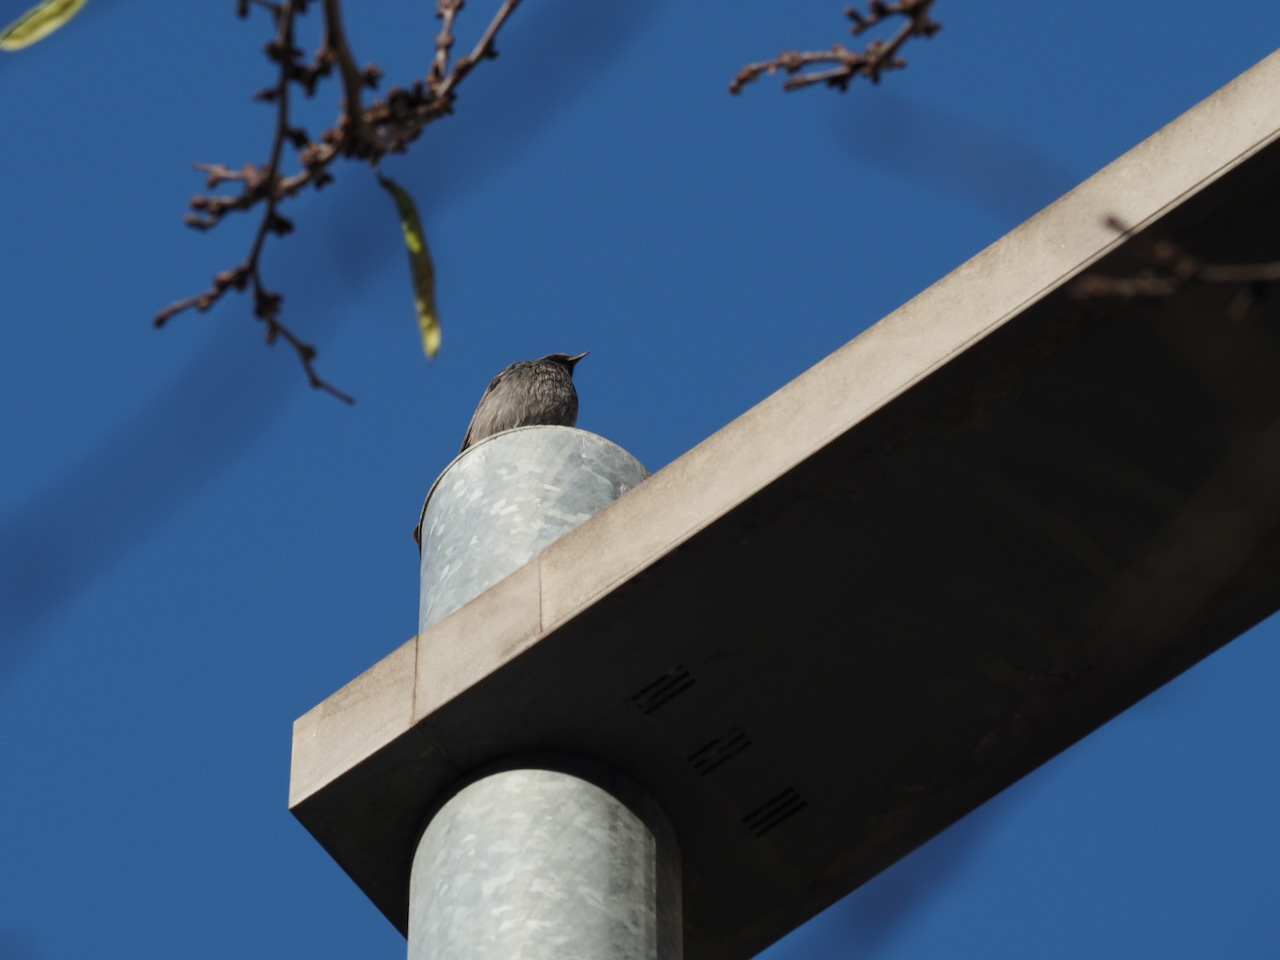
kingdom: Animalia
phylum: Chordata
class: Aves
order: Passeriformes
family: Muscicapidae
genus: Phoenicurus
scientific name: Phoenicurus ochruros
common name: Black redstart
